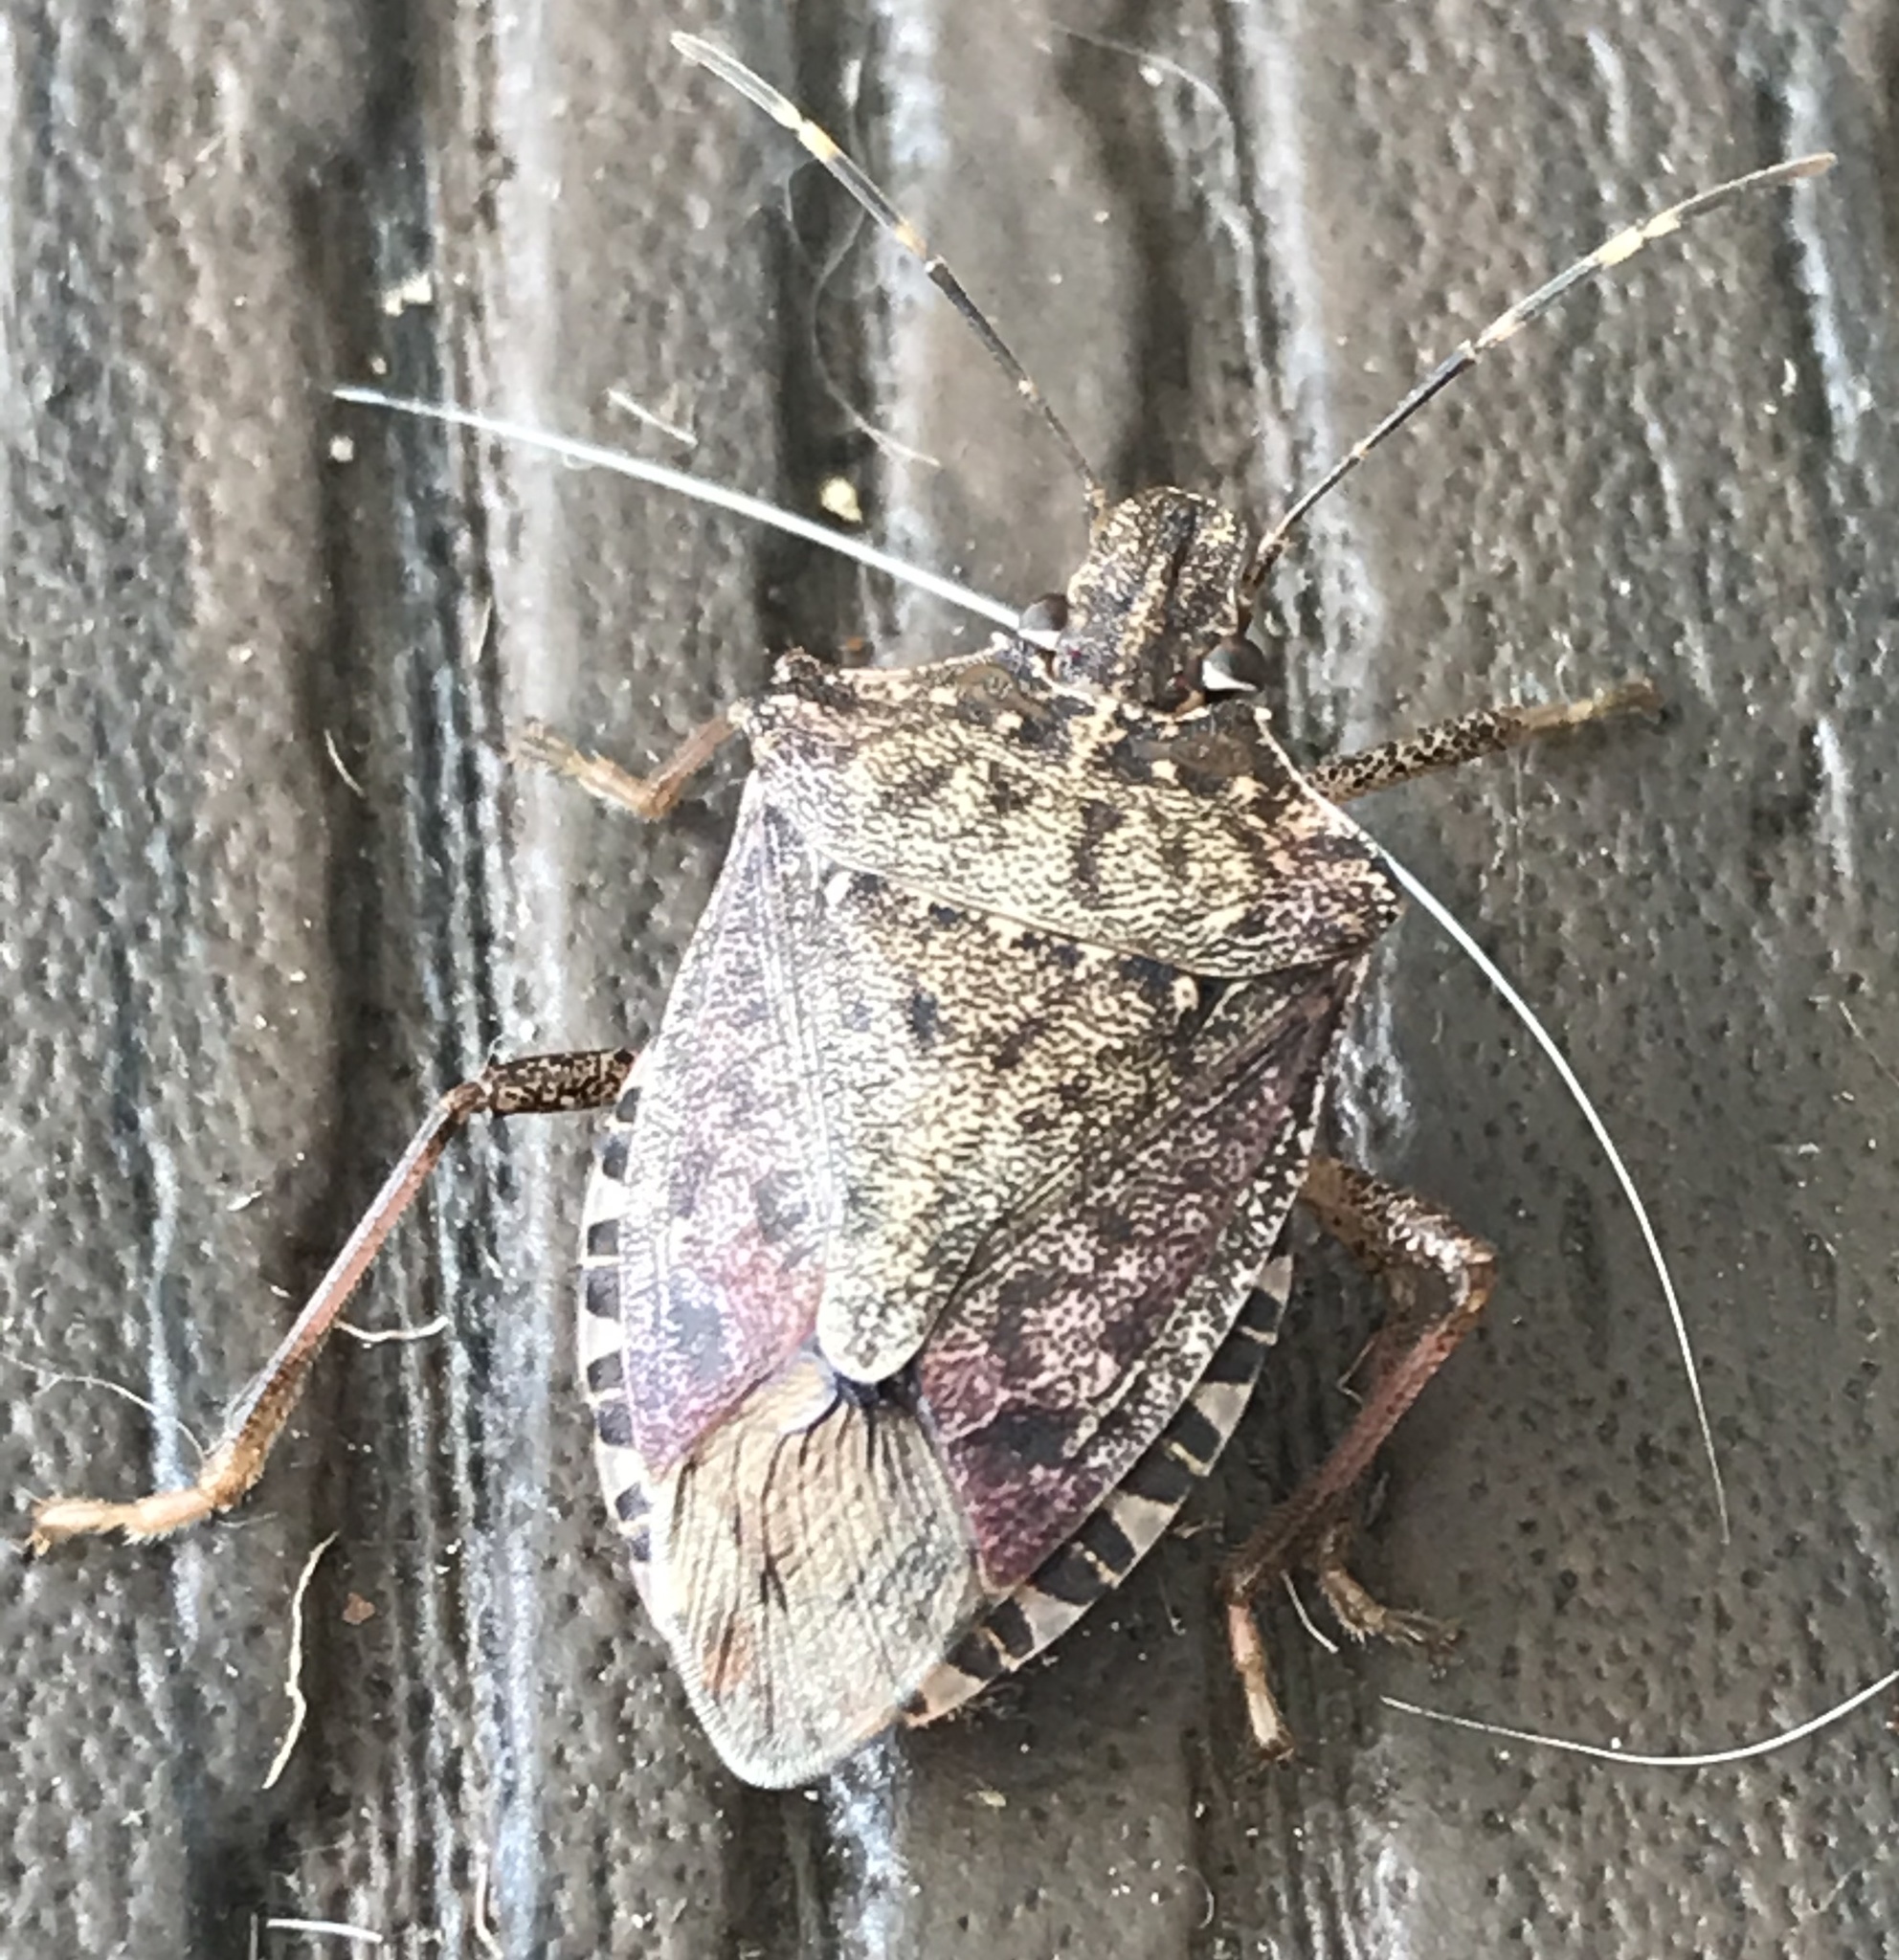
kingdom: Animalia
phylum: Arthropoda
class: Insecta
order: Hemiptera
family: Pentatomidae
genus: Halyomorpha
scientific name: Halyomorpha halys
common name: Brown marmorated stink bug
